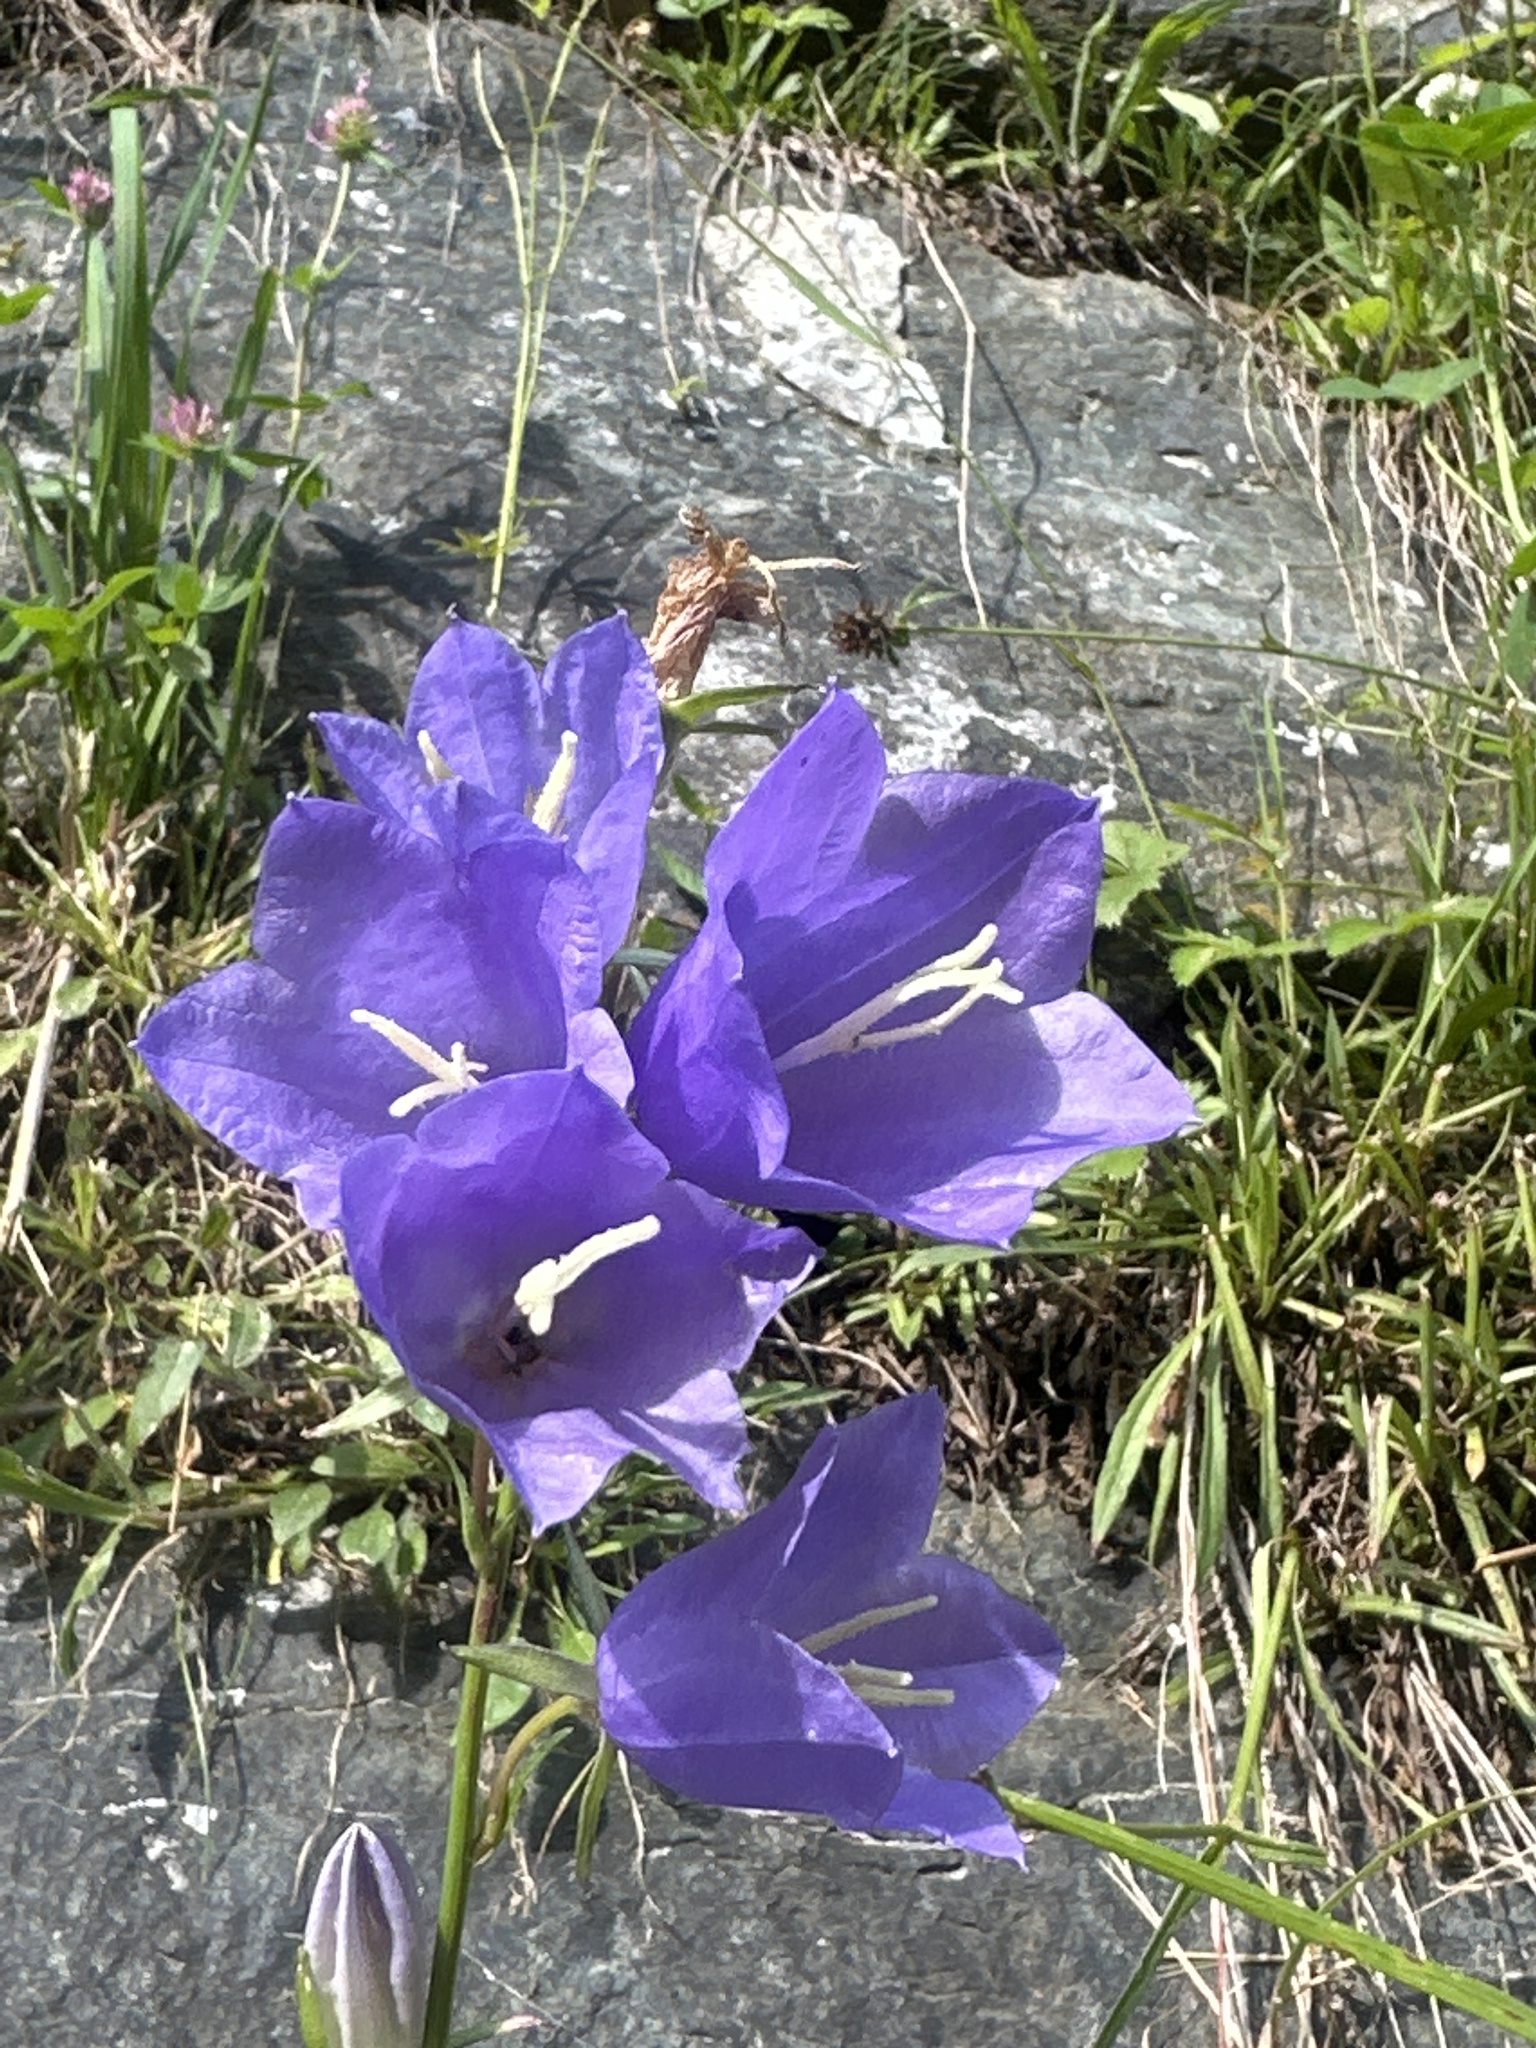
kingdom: Plantae
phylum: Tracheophyta
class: Magnoliopsida
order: Asterales
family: Campanulaceae
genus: Campanula
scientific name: Campanula persicifolia
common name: Peach-leaved bellflower
